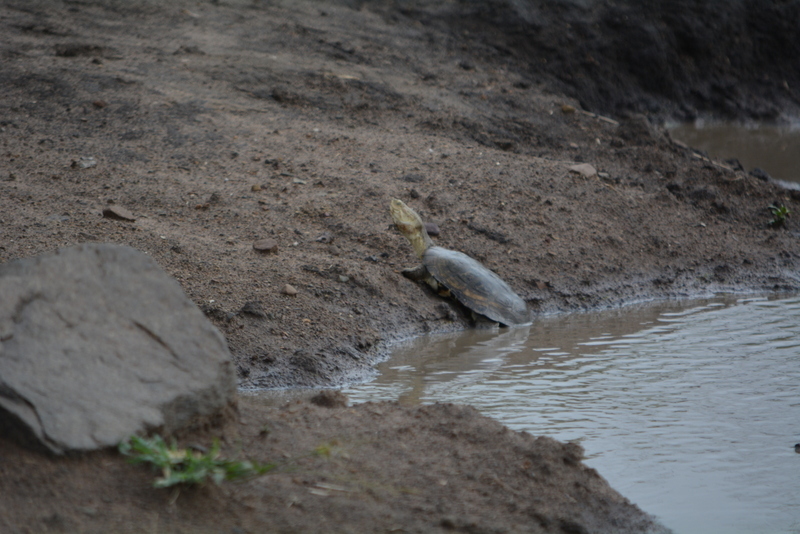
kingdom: Animalia
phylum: Chordata
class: Testudines
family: Pelomedusidae
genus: Pelomedusa
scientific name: Pelomedusa galeata
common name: South african helmeted terrapin
